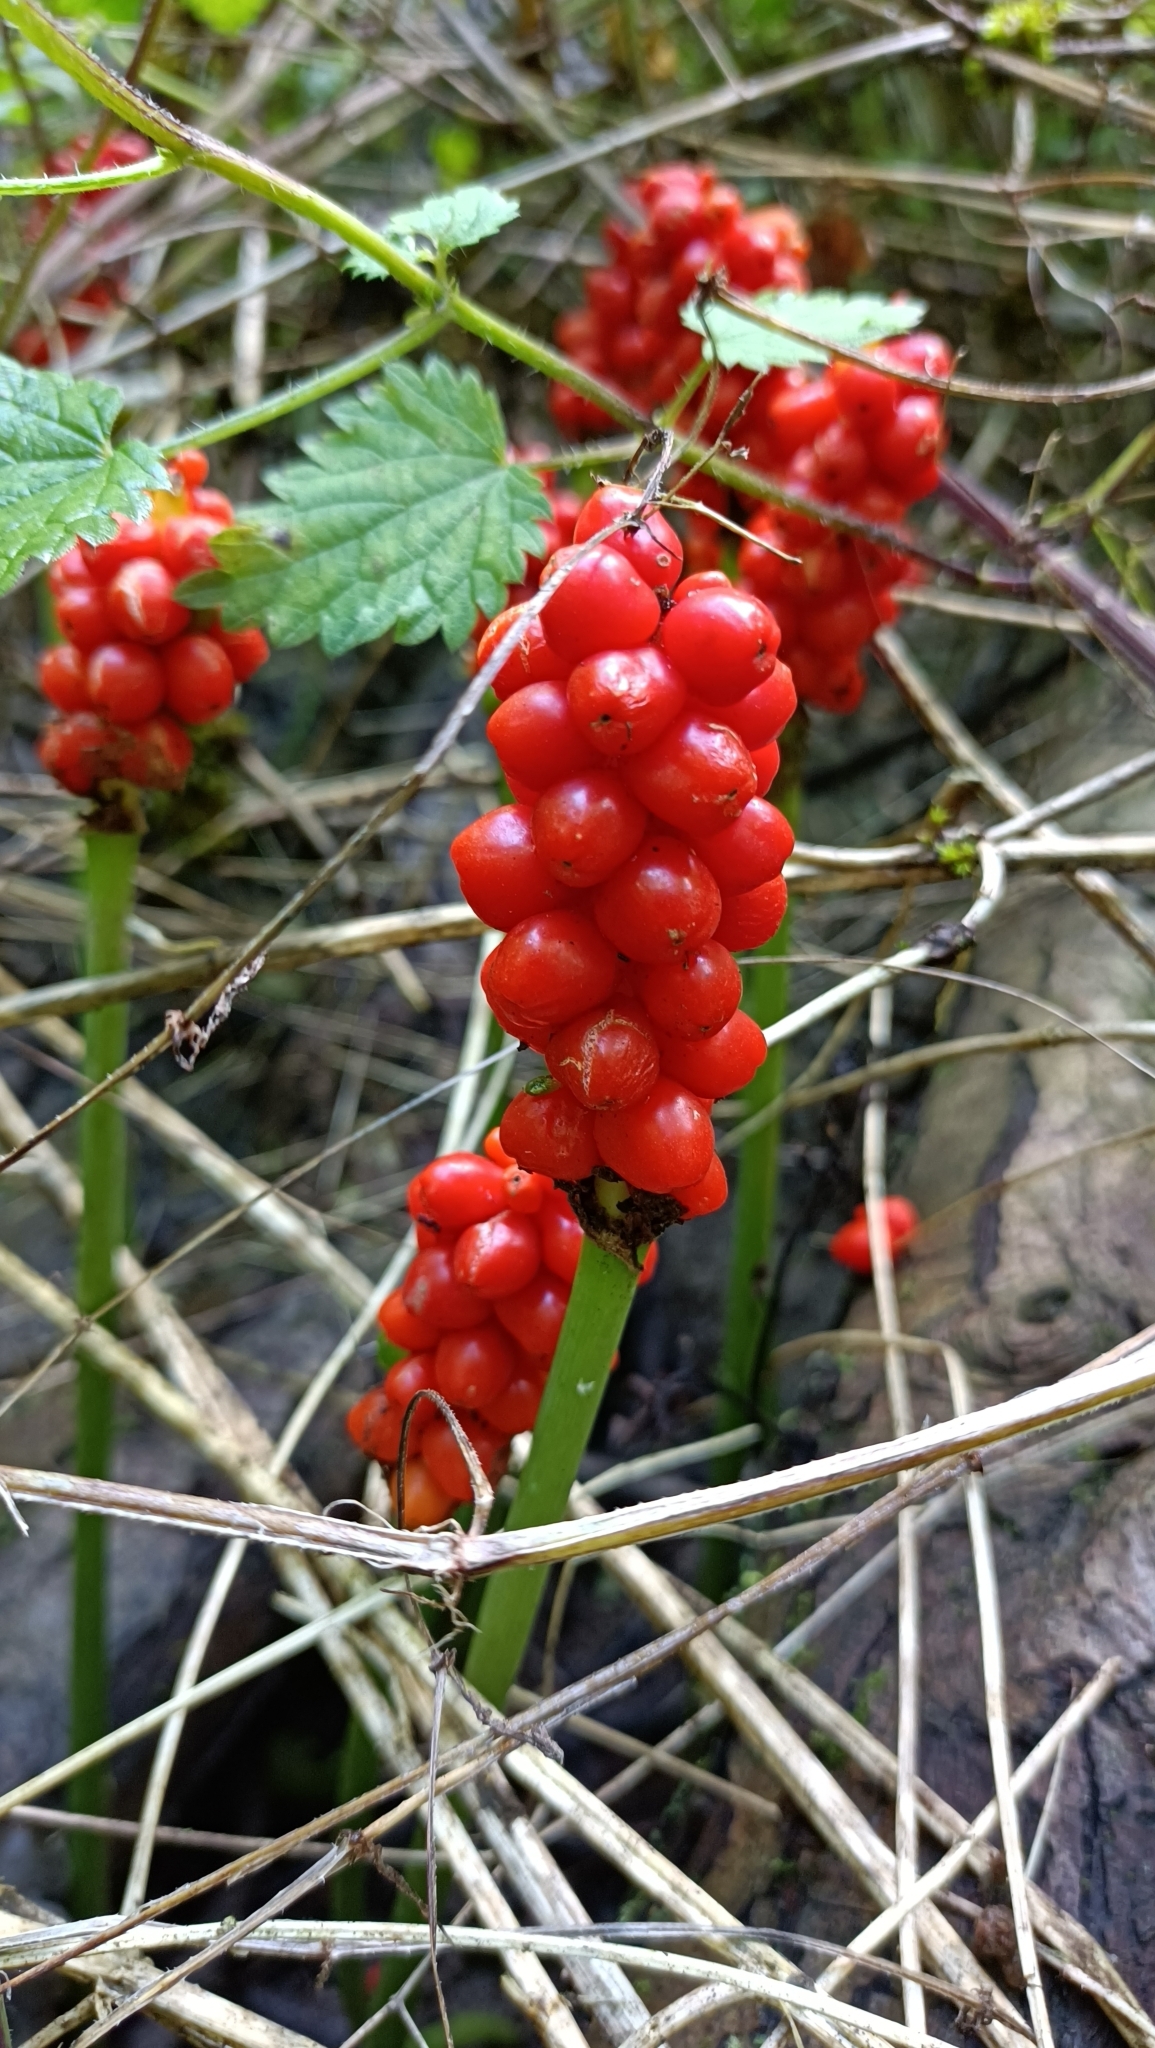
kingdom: Plantae
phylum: Tracheophyta
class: Liliopsida
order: Alismatales
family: Araceae
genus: Arum
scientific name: Arum maculatum
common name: Lords-and-ladies
